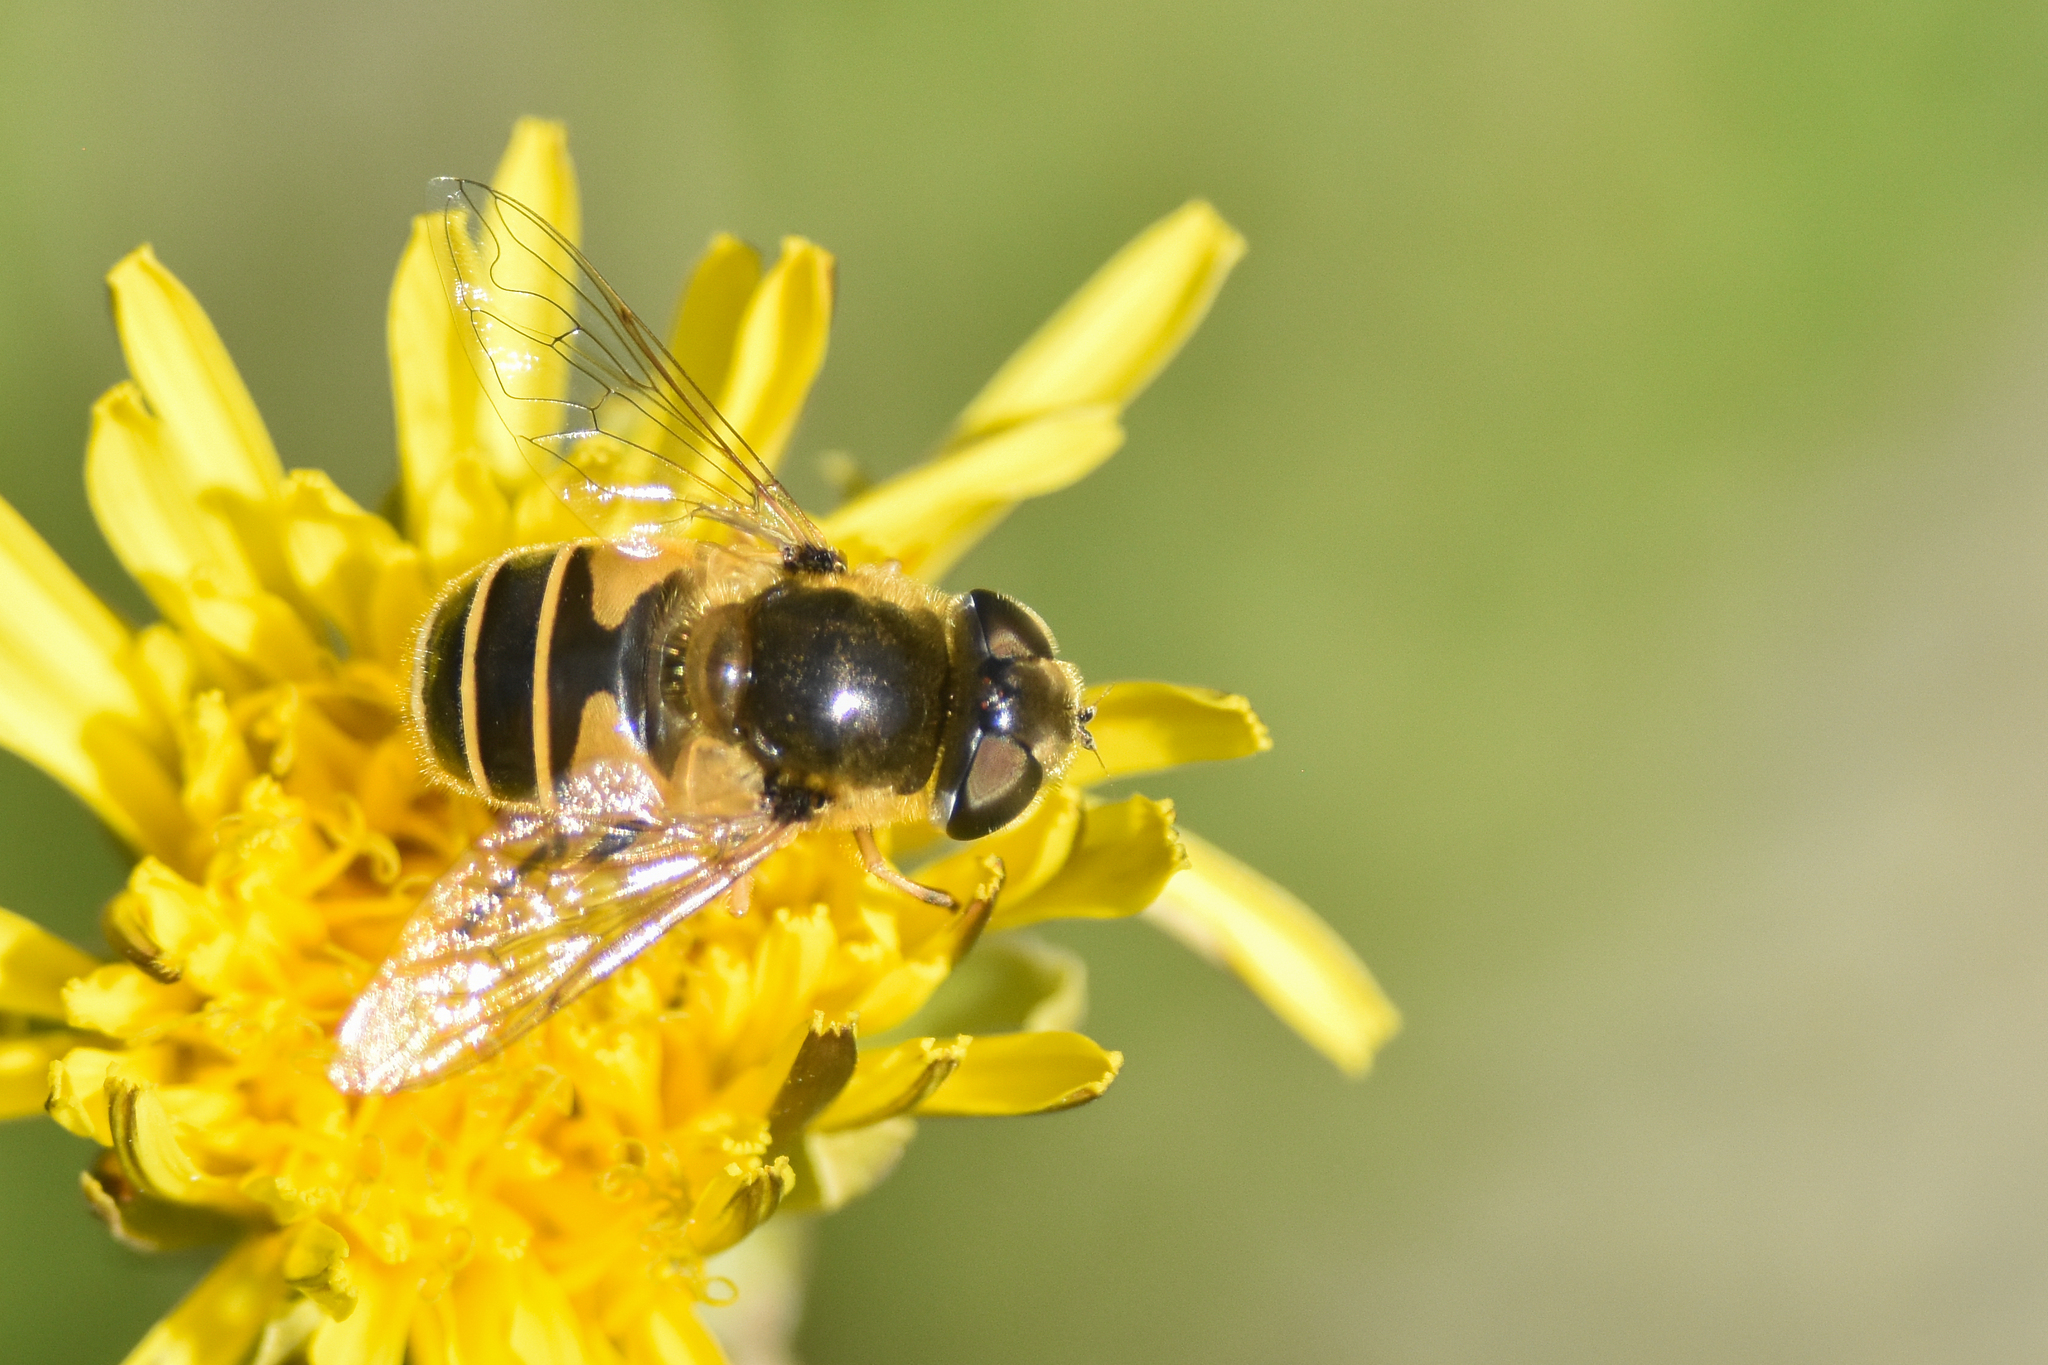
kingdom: Animalia
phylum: Arthropoda
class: Insecta
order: Diptera
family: Syrphidae
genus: Eristalis
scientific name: Eristalis hirta
